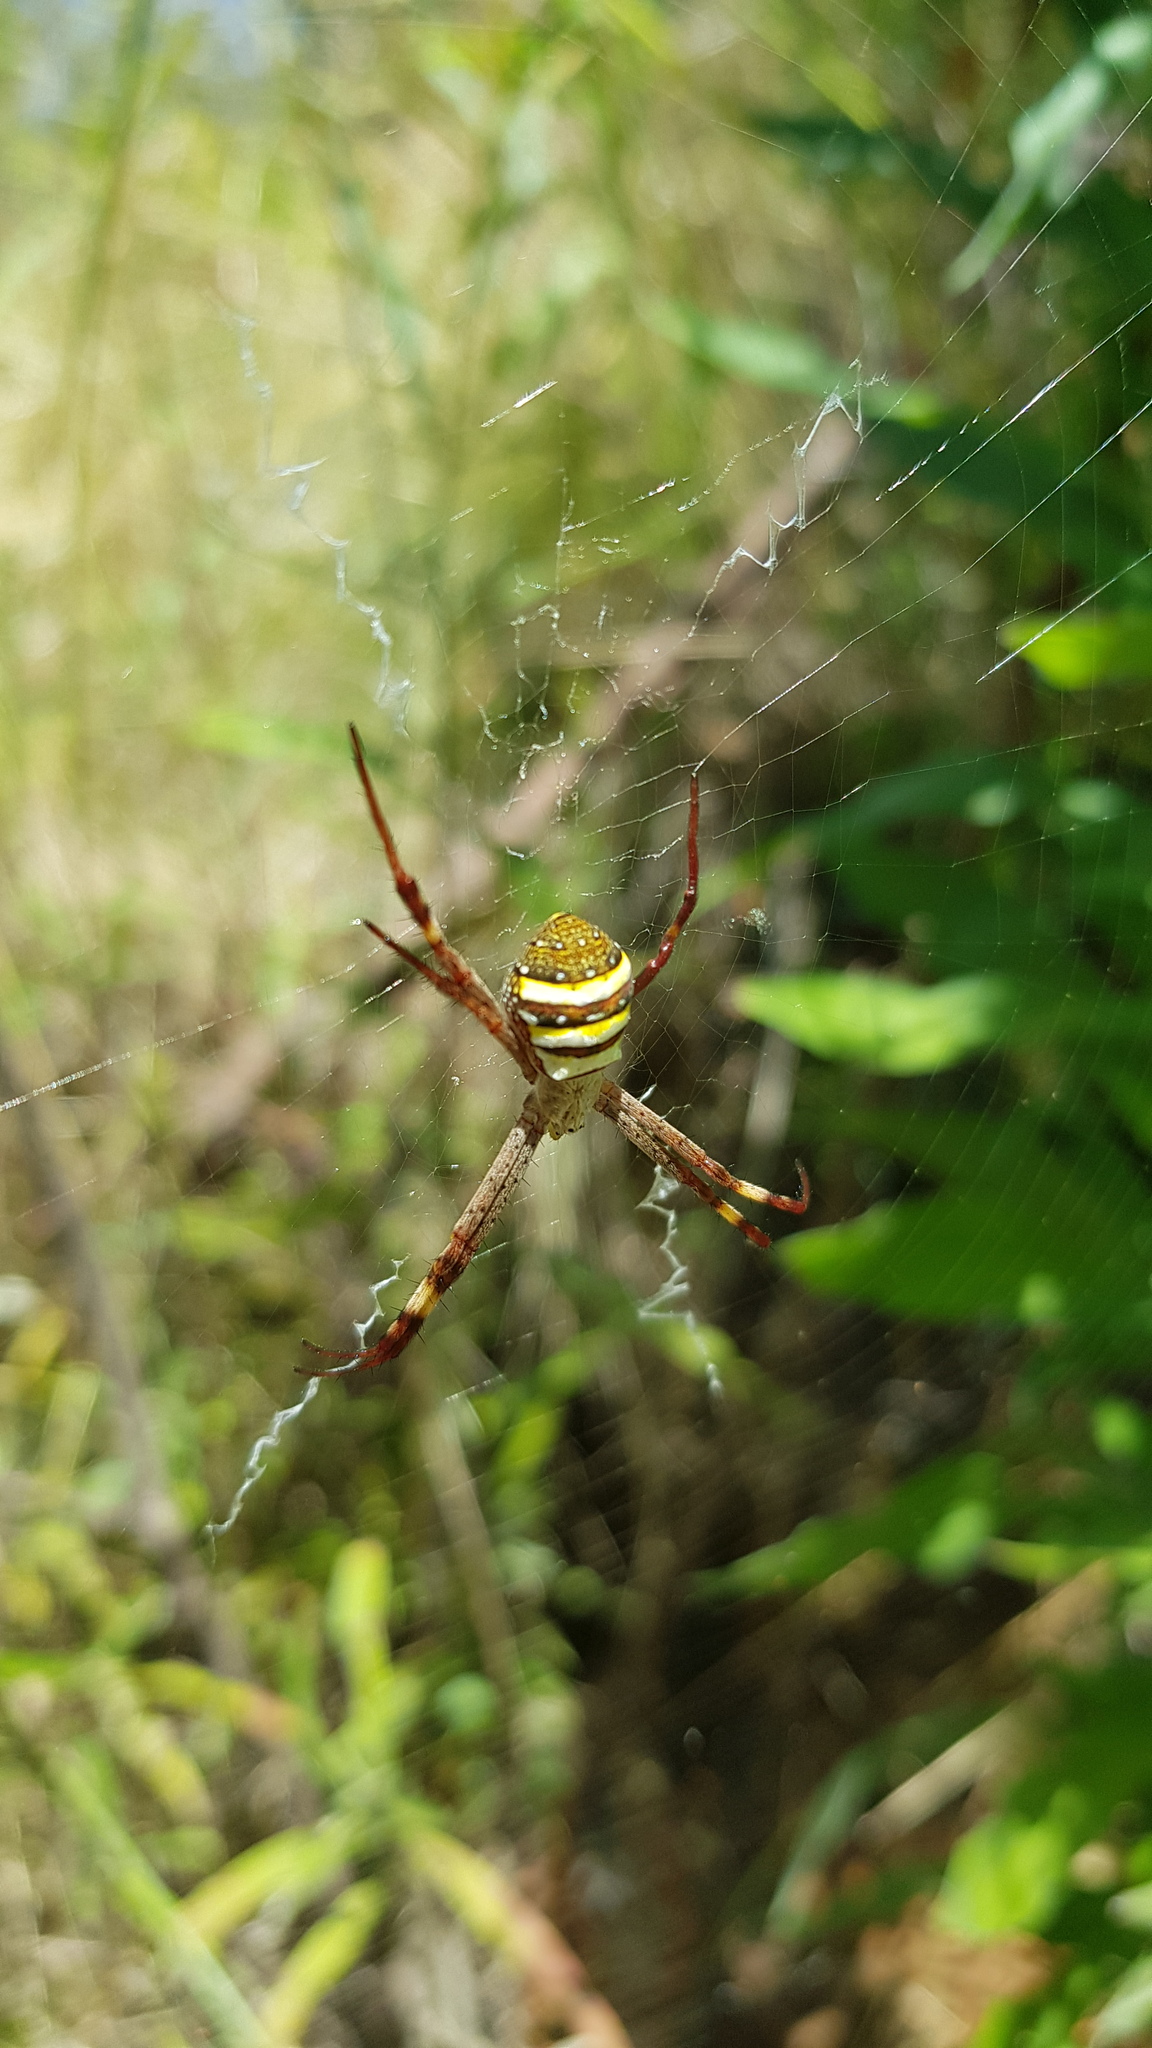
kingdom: Animalia
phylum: Arthropoda
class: Arachnida
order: Araneae
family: Araneidae
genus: Argiope
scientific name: Argiope keyserlingi
